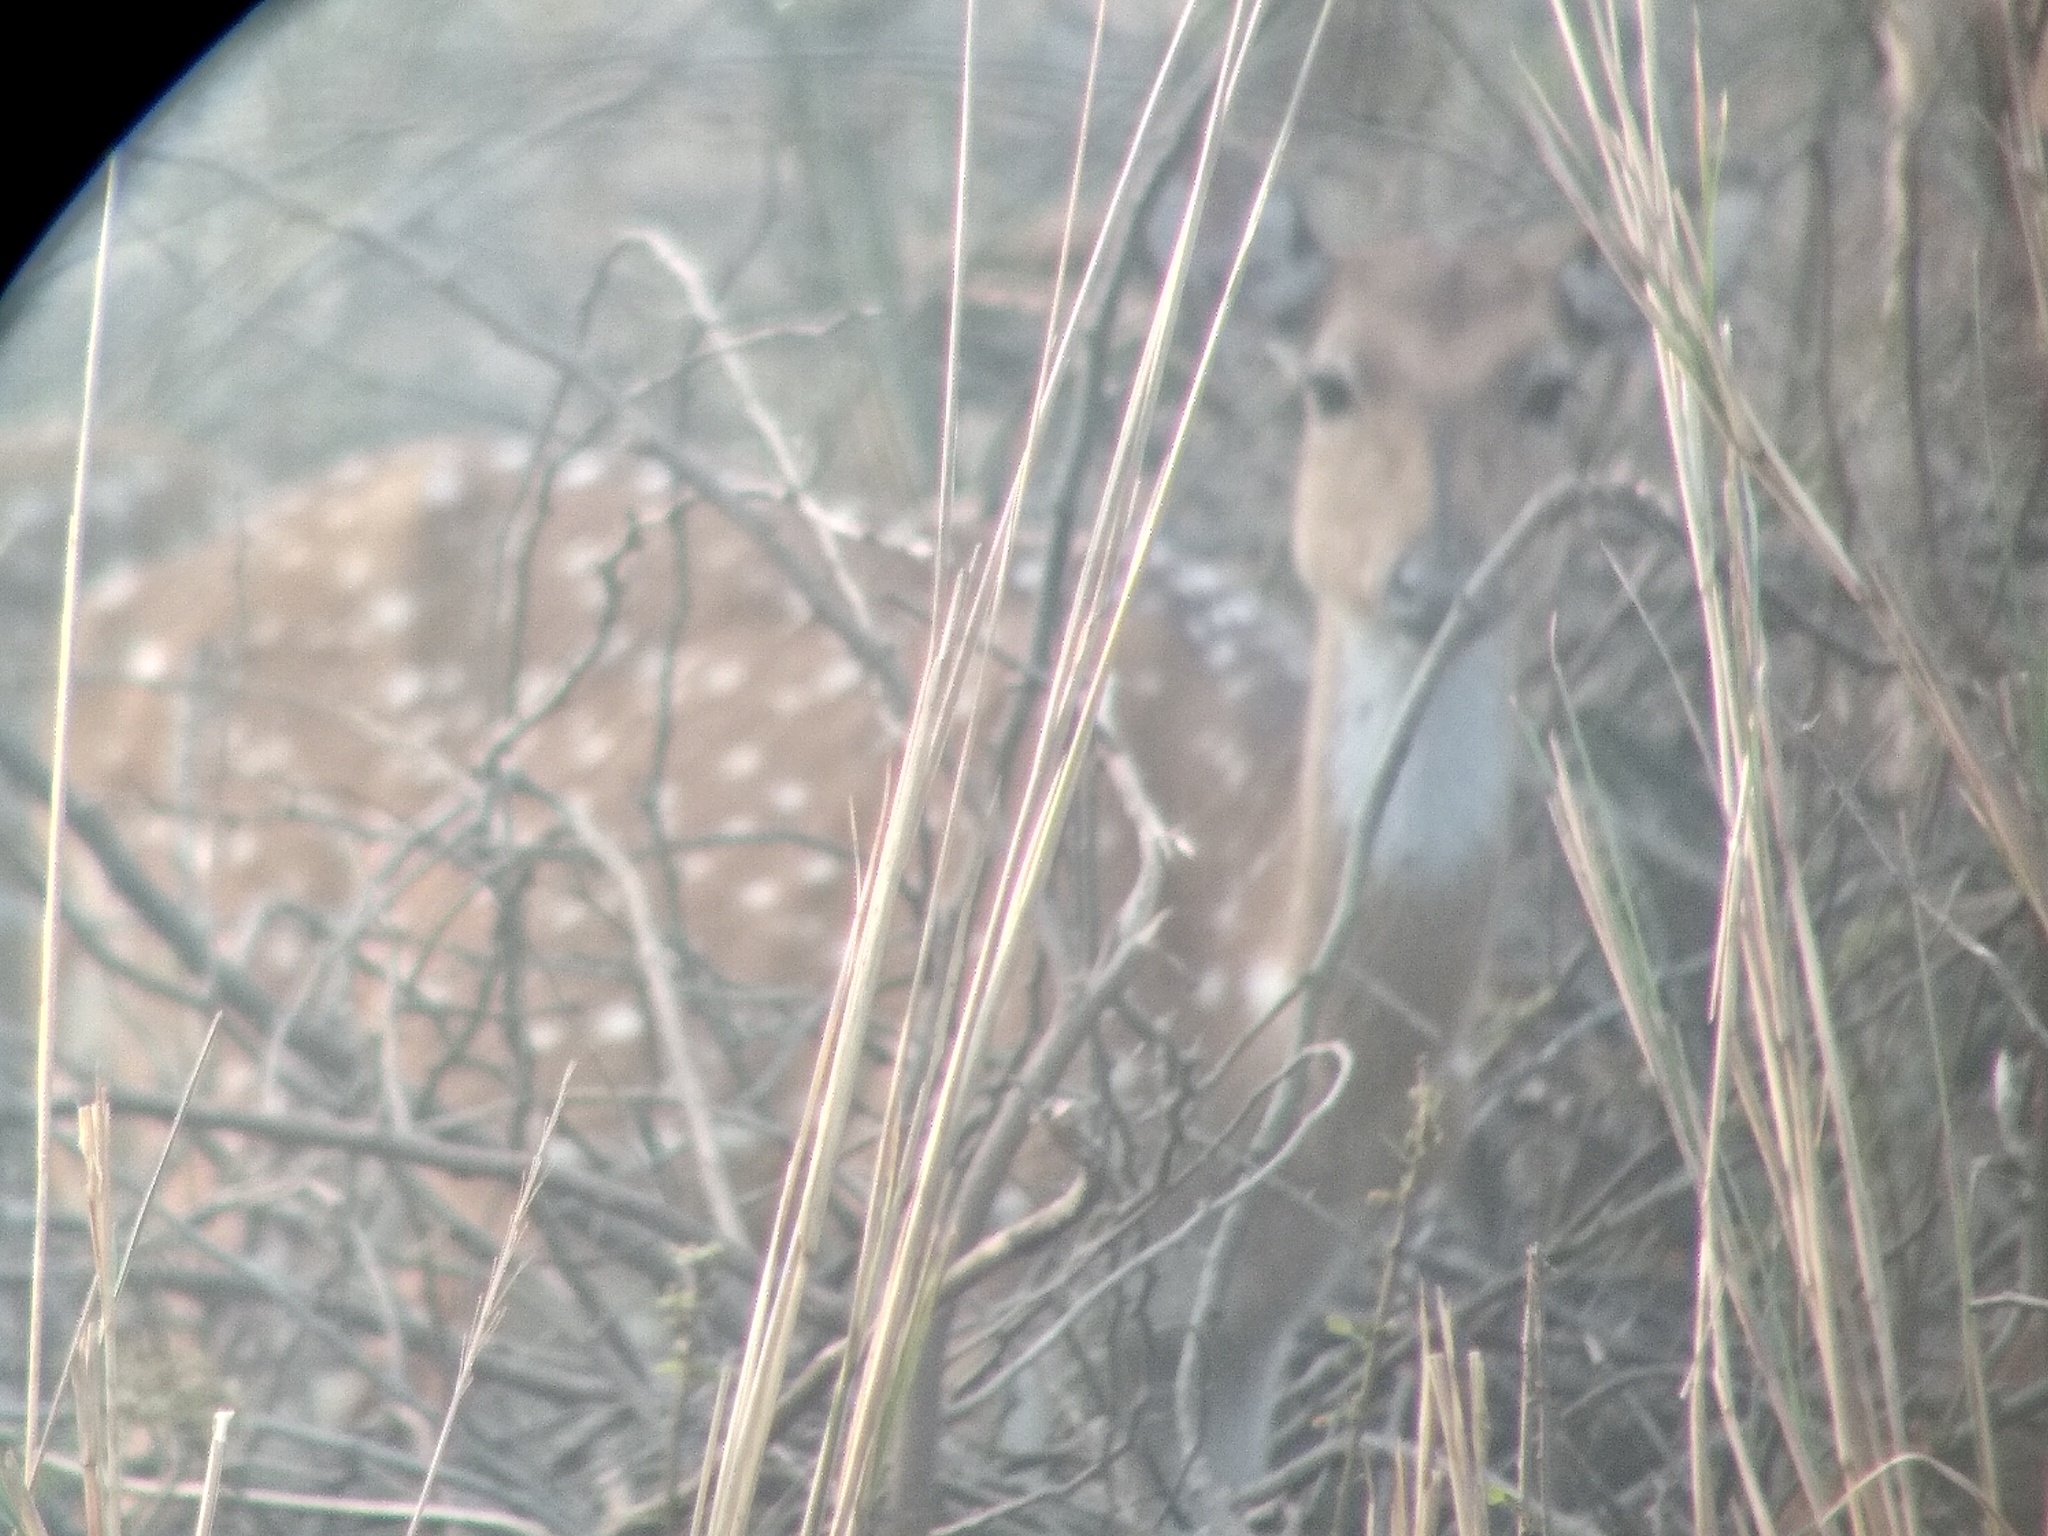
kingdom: Animalia
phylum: Chordata
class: Mammalia
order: Artiodactyla
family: Cervidae
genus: Axis
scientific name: Axis axis
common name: Chital
